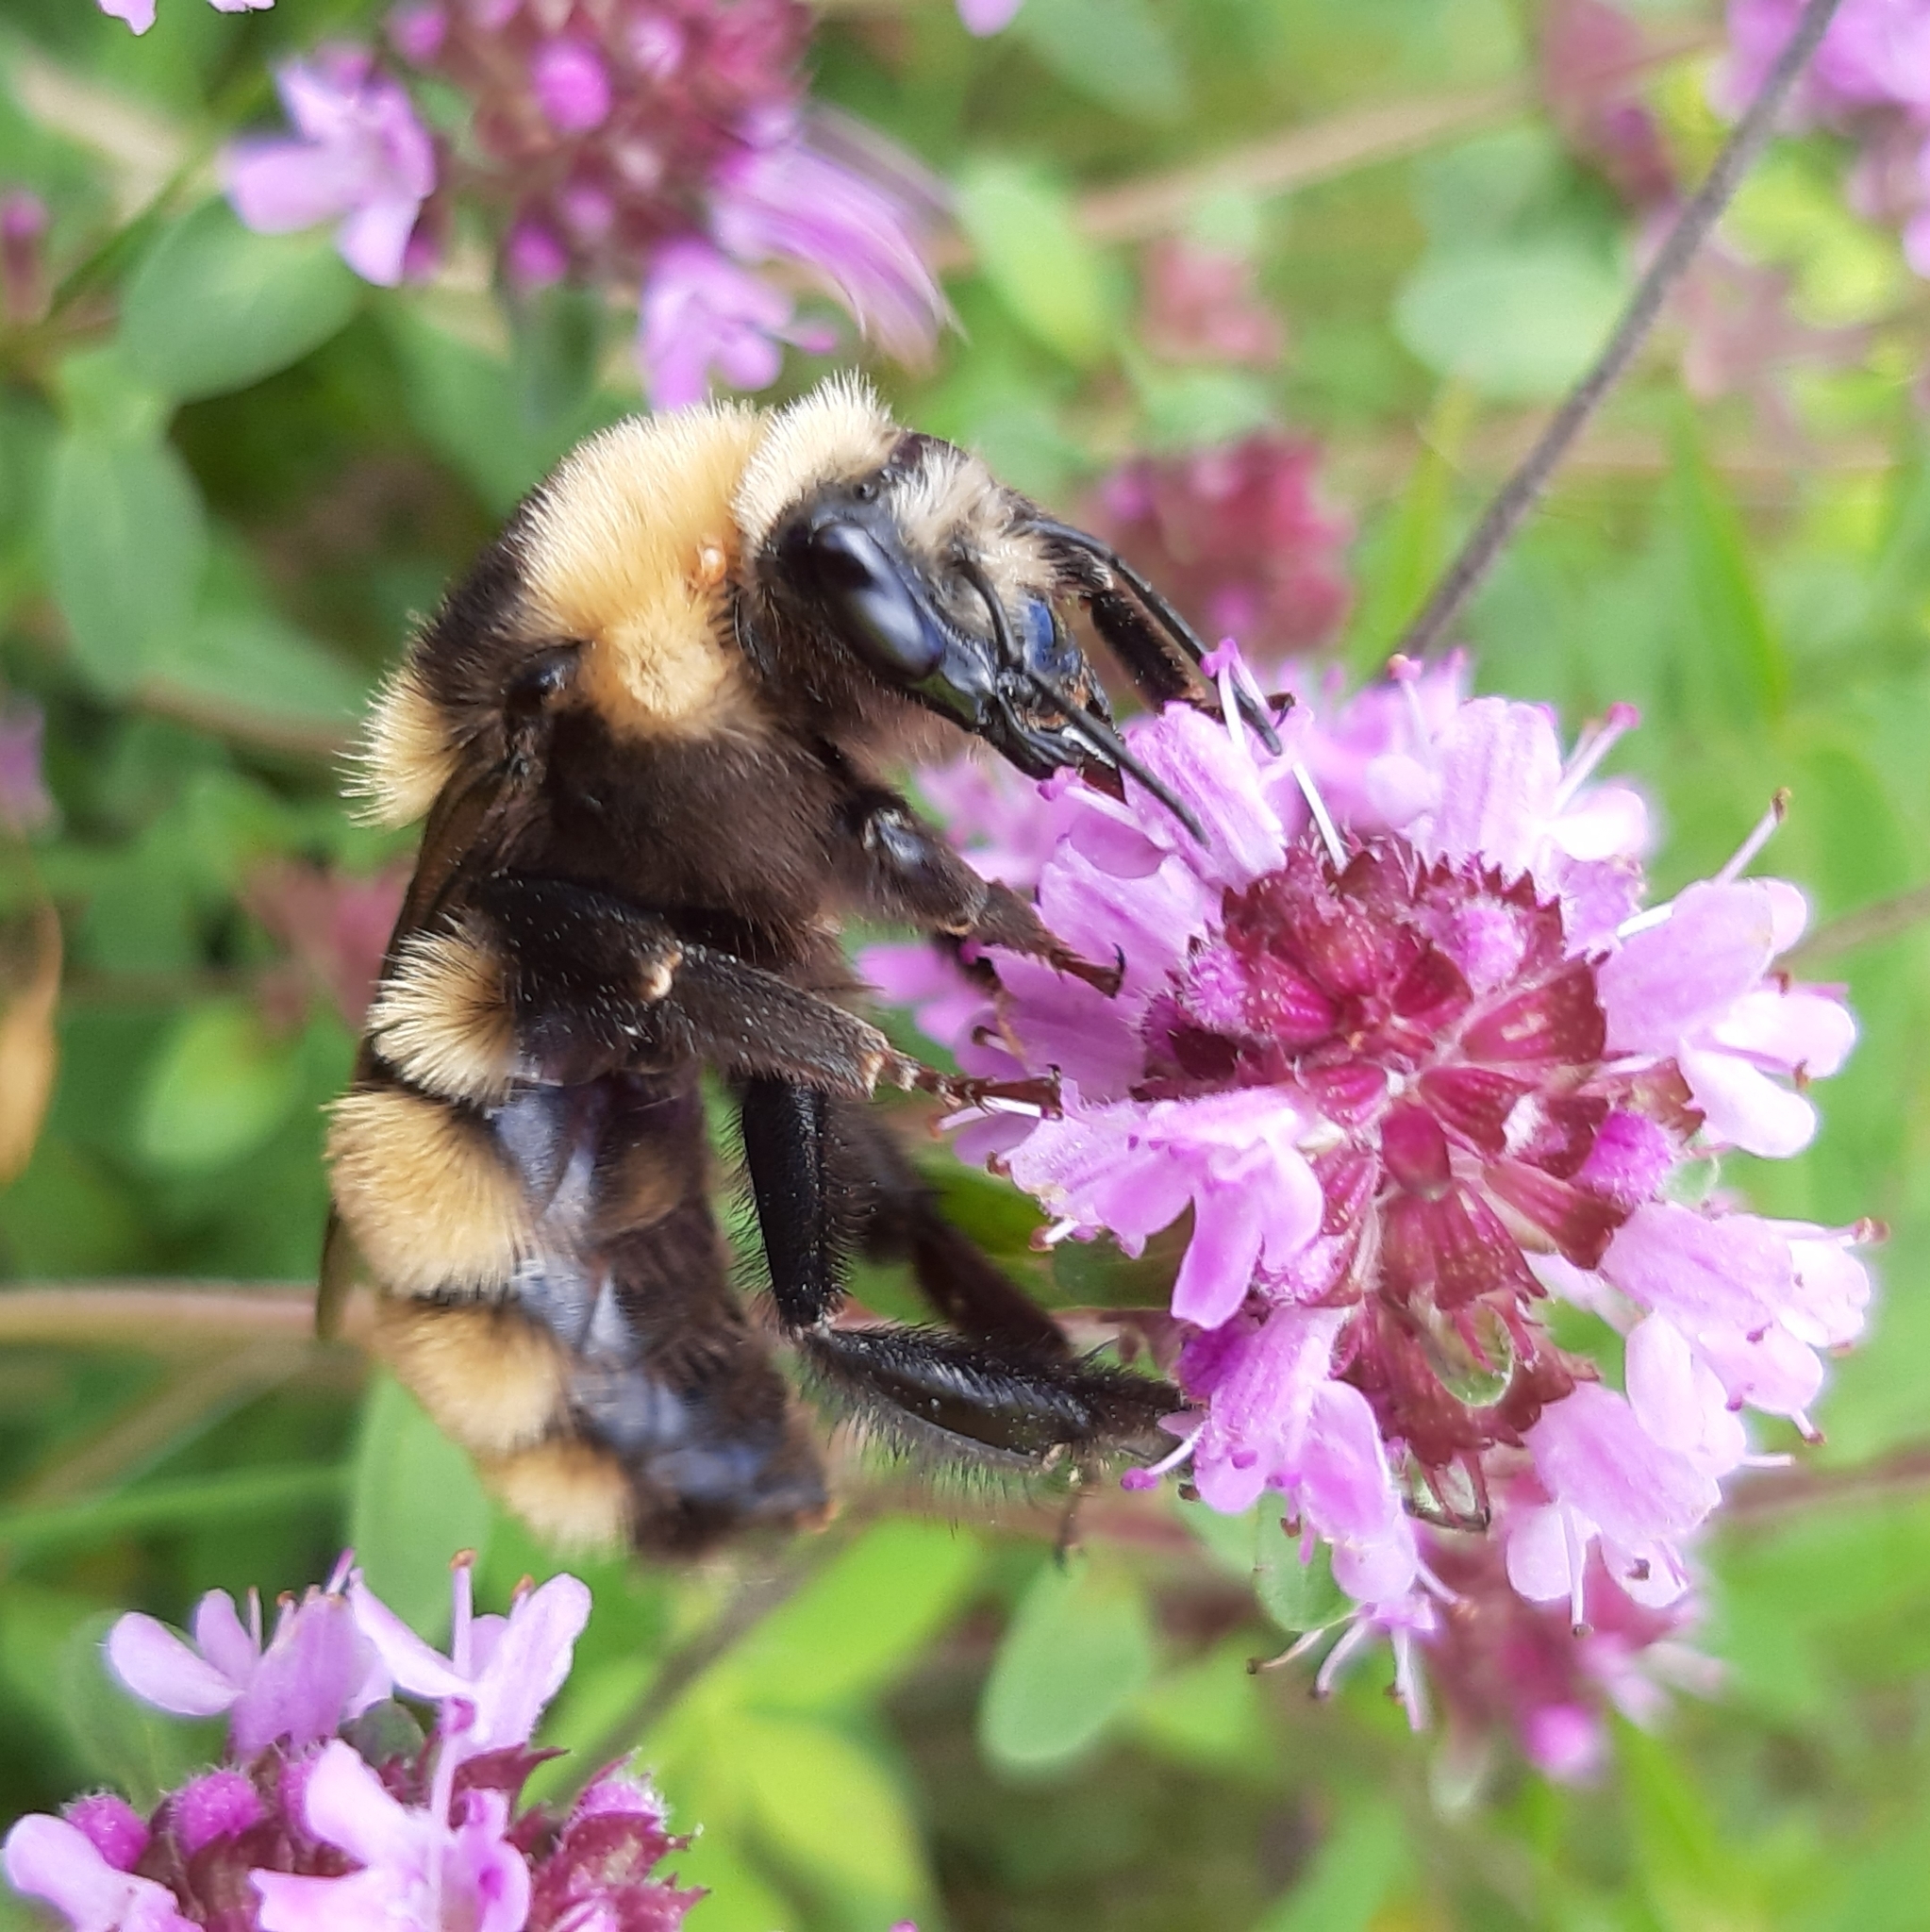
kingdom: Animalia
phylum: Arthropoda
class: Insecta
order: Hymenoptera
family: Apidae
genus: Bombus
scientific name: Bombus borealis
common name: Northern amber bumble bee
